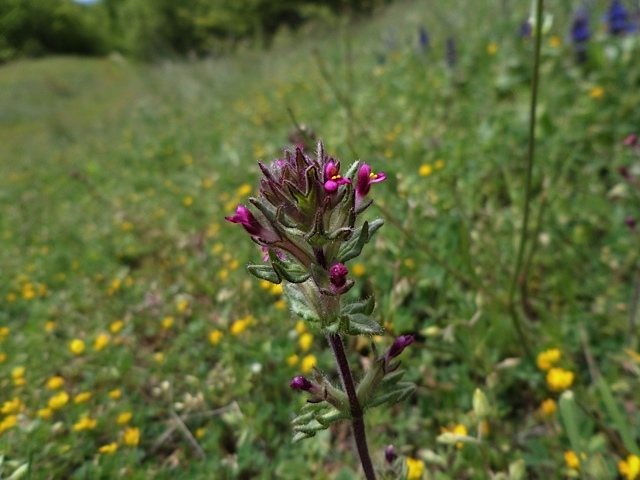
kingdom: Plantae
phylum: Tracheophyta
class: Magnoliopsida
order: Lamiales
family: Orobanchaceae
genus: Parentucellia
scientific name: Parentucellia latifolia
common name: Broadleaf glandweed
